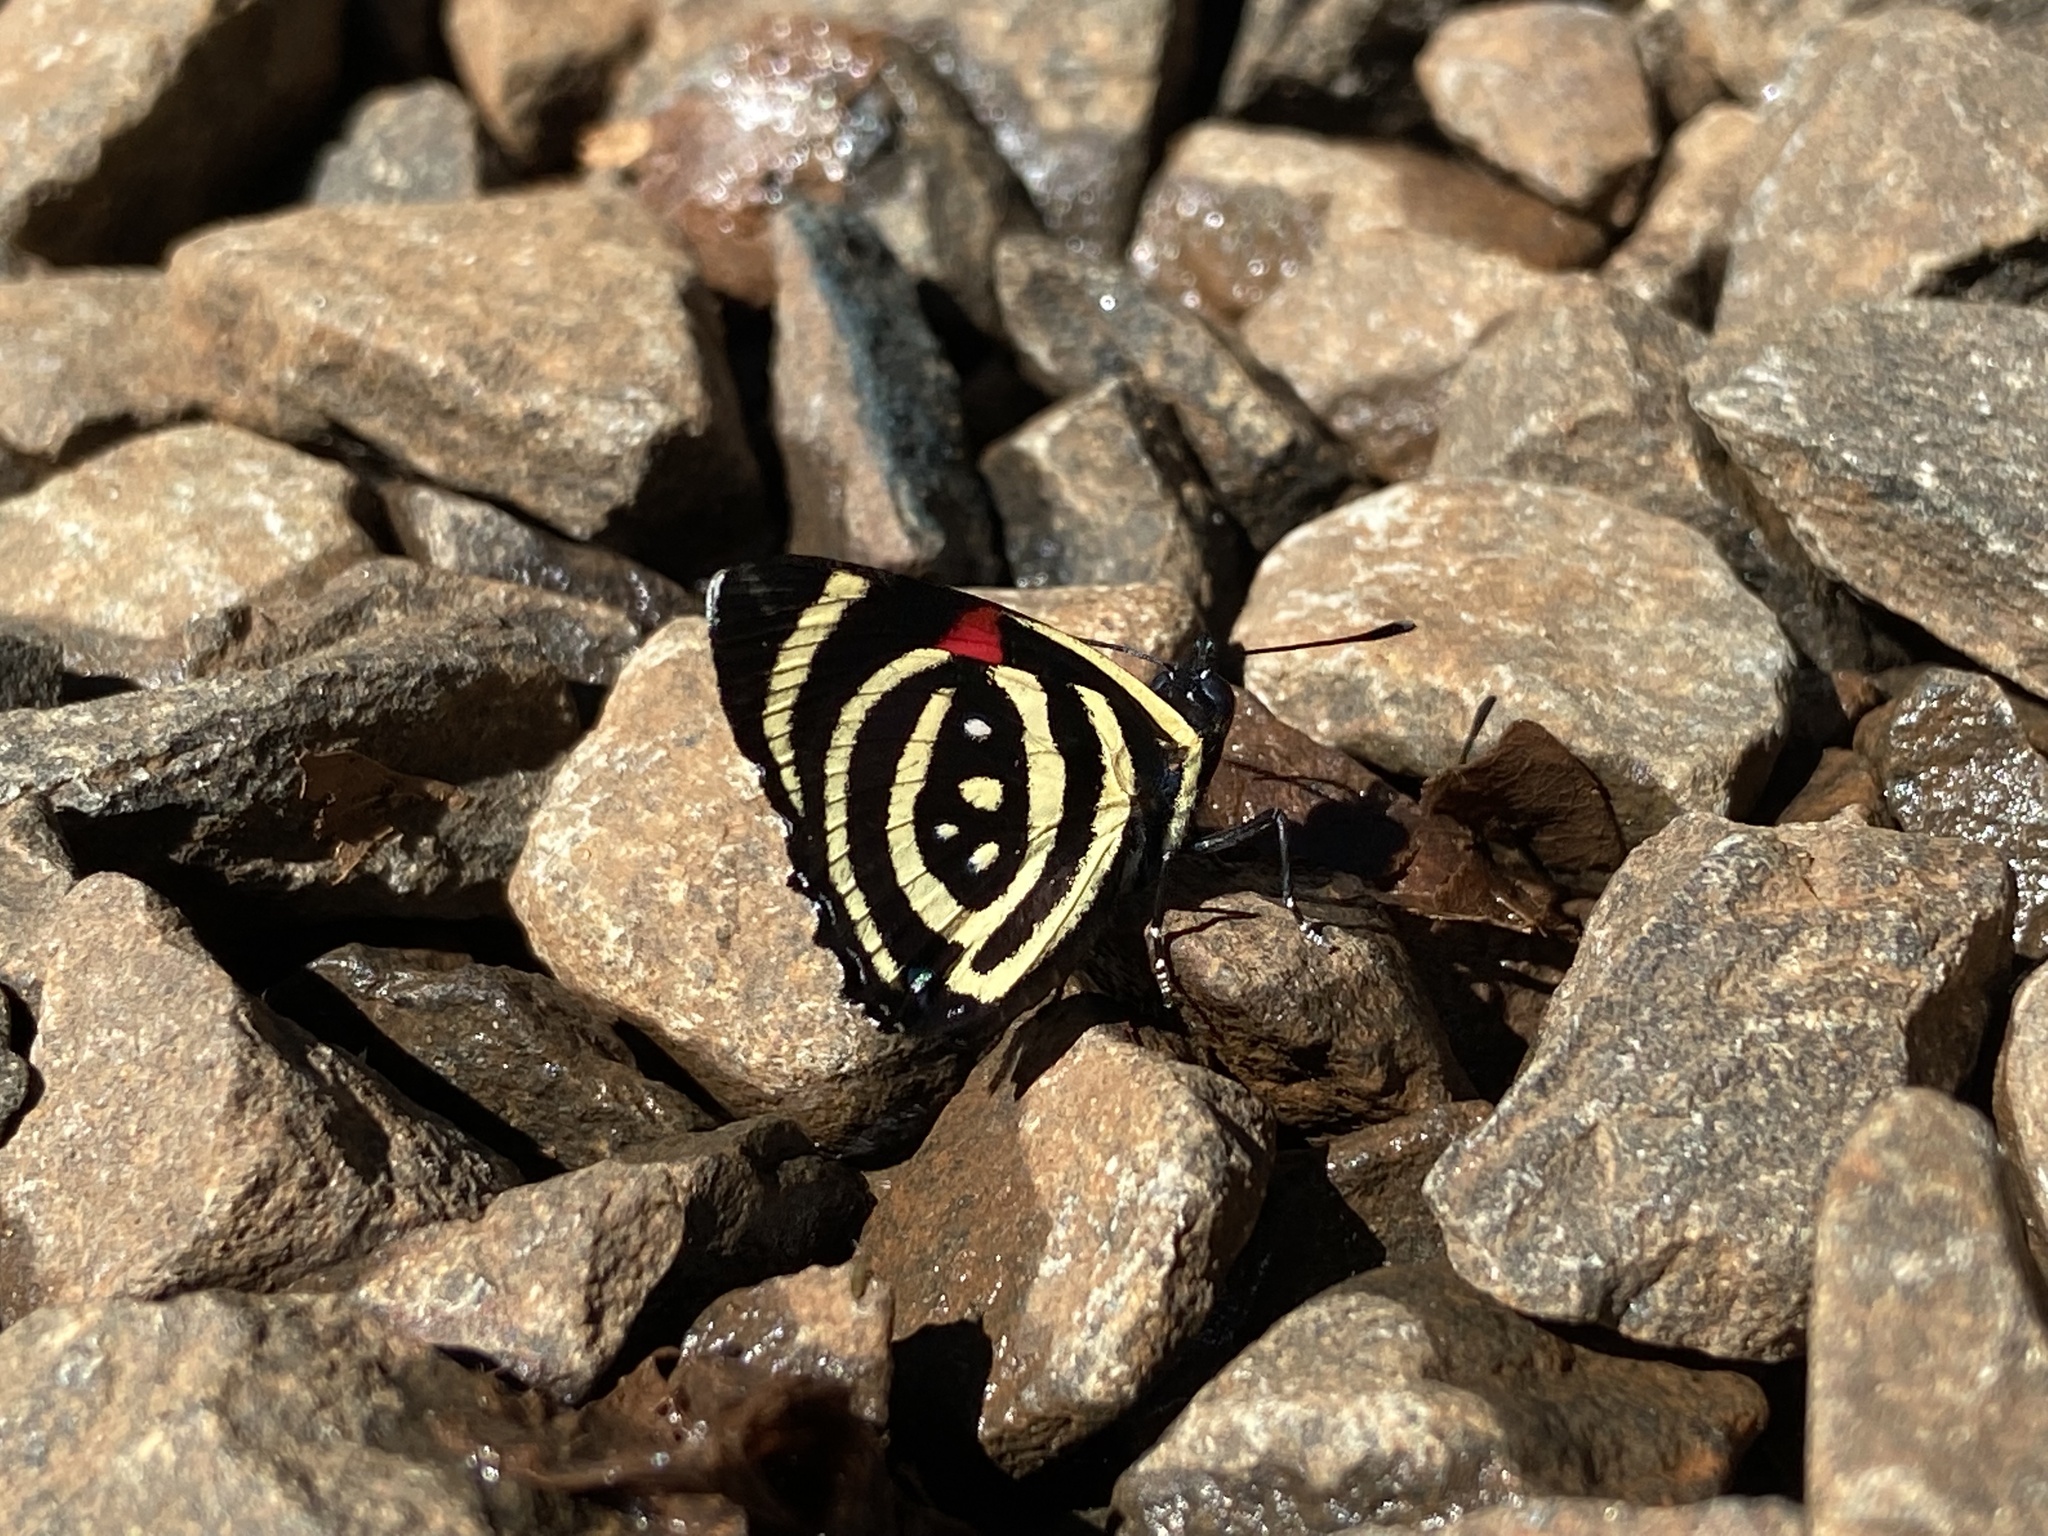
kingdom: Animalia
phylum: Arthropoda
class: Insecta
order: Lepidoptera
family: Nymphalidae
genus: Catagramma
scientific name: Catagramma Callicore hydaspes
